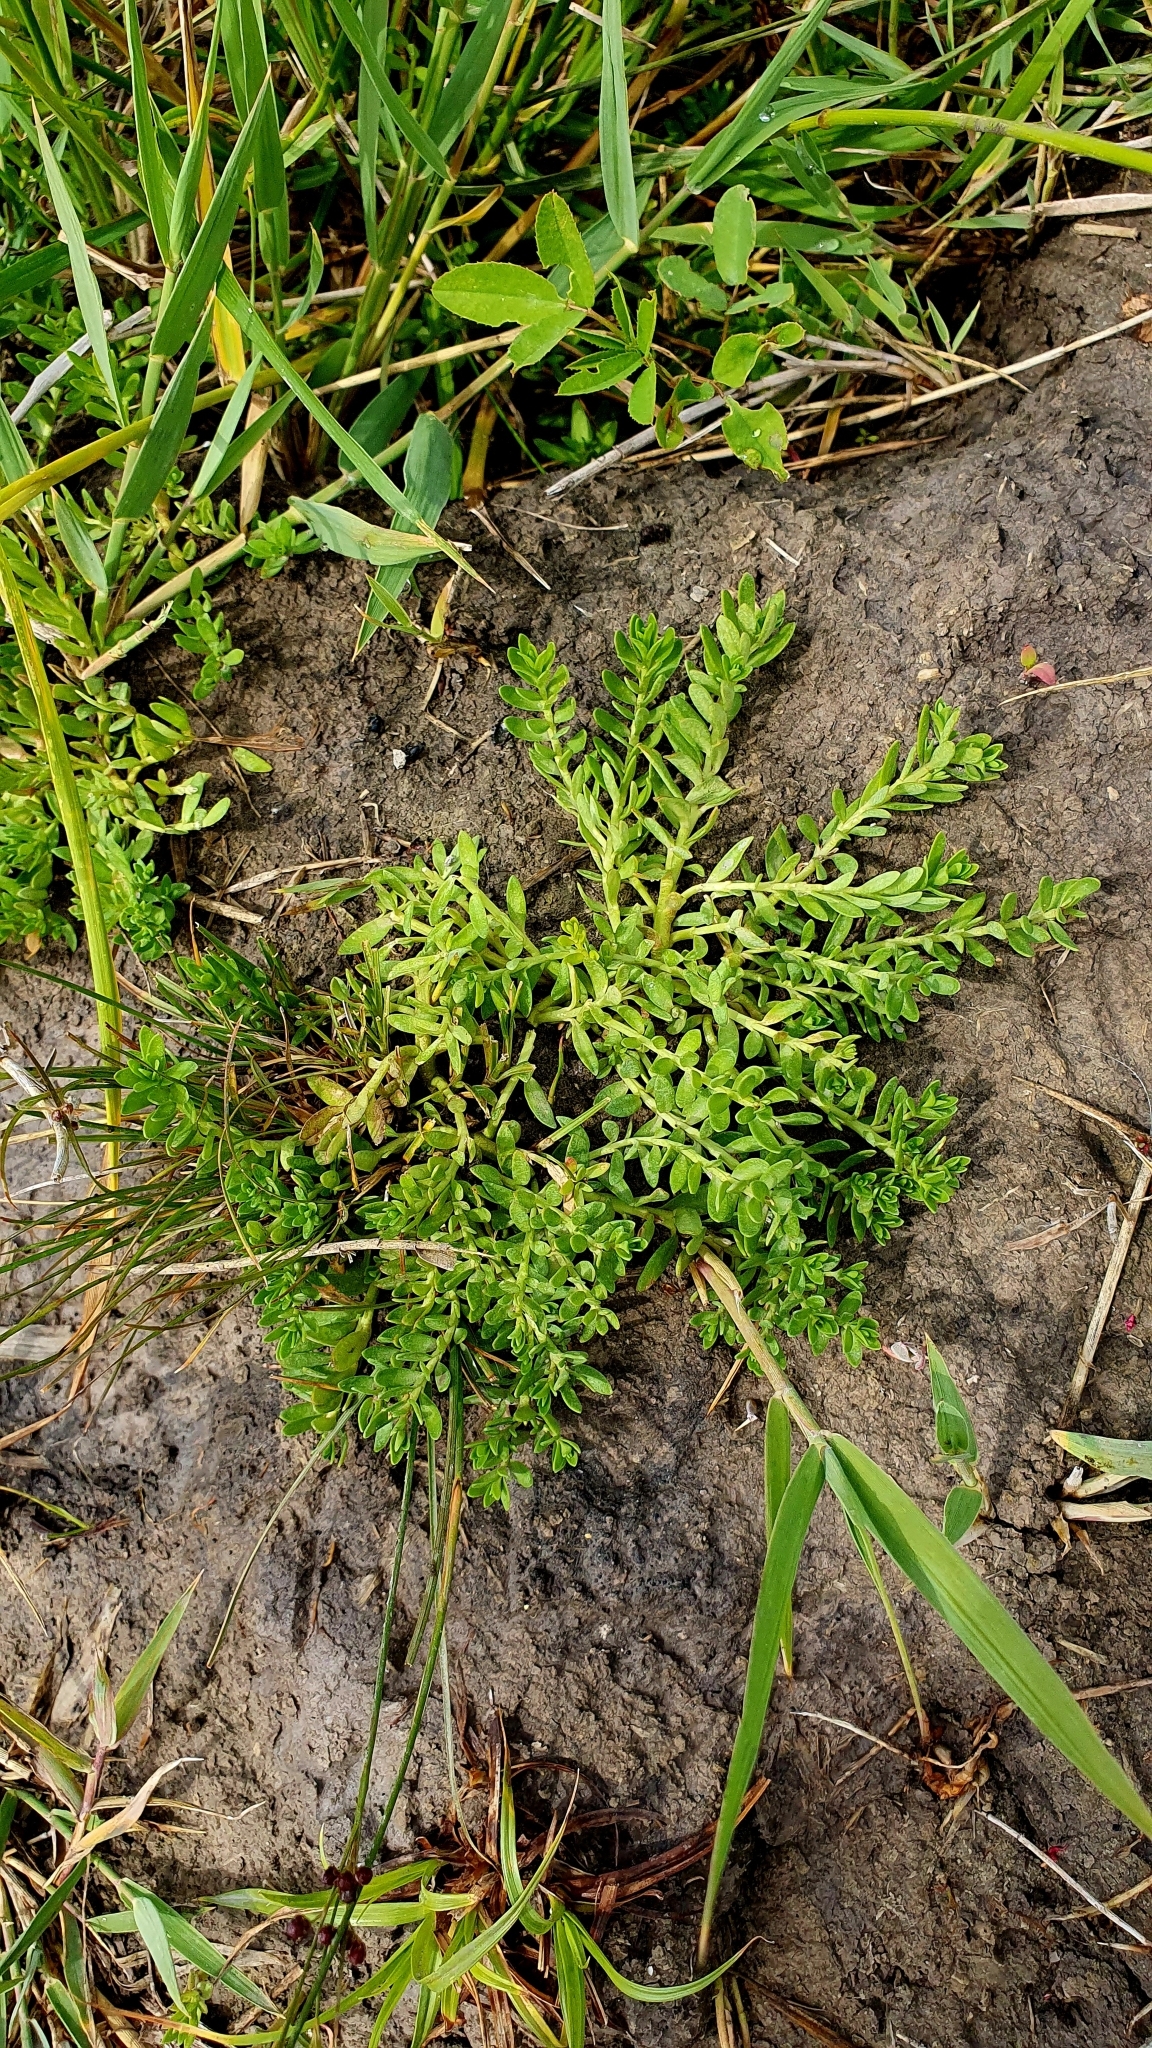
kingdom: Plantae
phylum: Tracheophyta
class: Magnoliopsida
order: Ericales
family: Primulaceae
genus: Lysimachia
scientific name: Lysimachia maritima
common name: Sea milkwort
